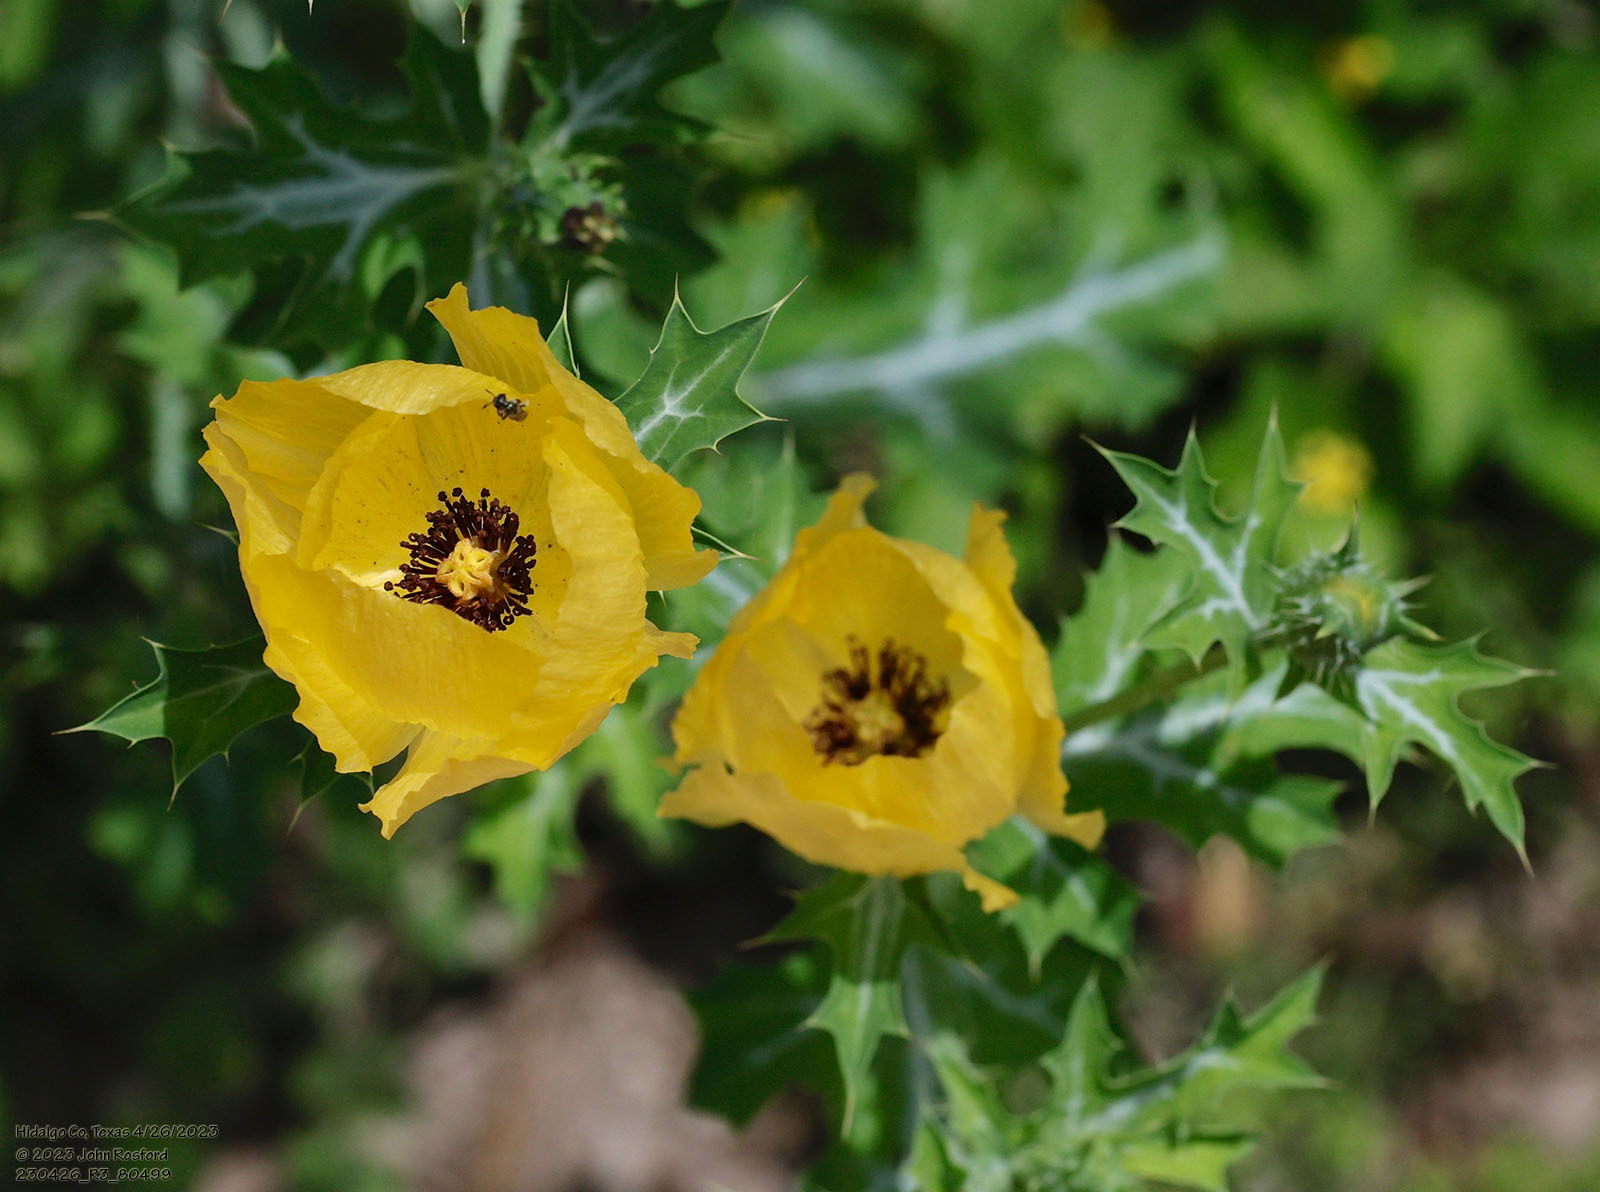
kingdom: Plantae
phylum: Tracheophyta
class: Magnoliopsida
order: Ranunculales
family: Papaveraceae
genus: Argemone
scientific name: Argemone aenea
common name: Golden prickly-poppy
